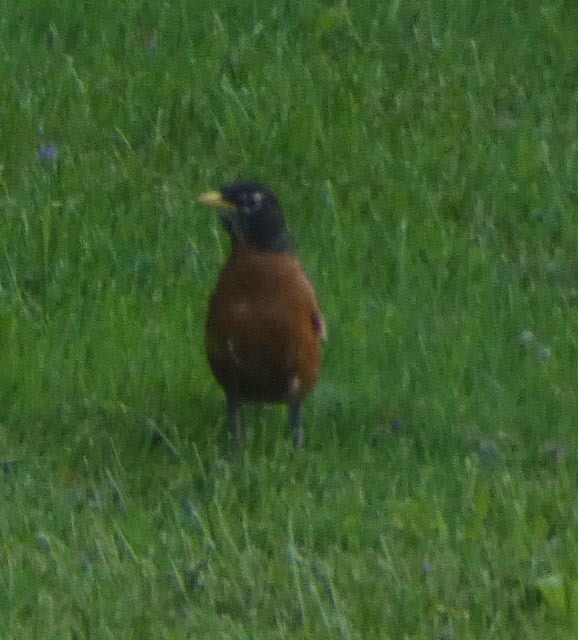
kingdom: Animalia
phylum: Chordata
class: Aves
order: Passeriformes
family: Turdidae
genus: Turdus
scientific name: Turdus migratorius
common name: American robin
